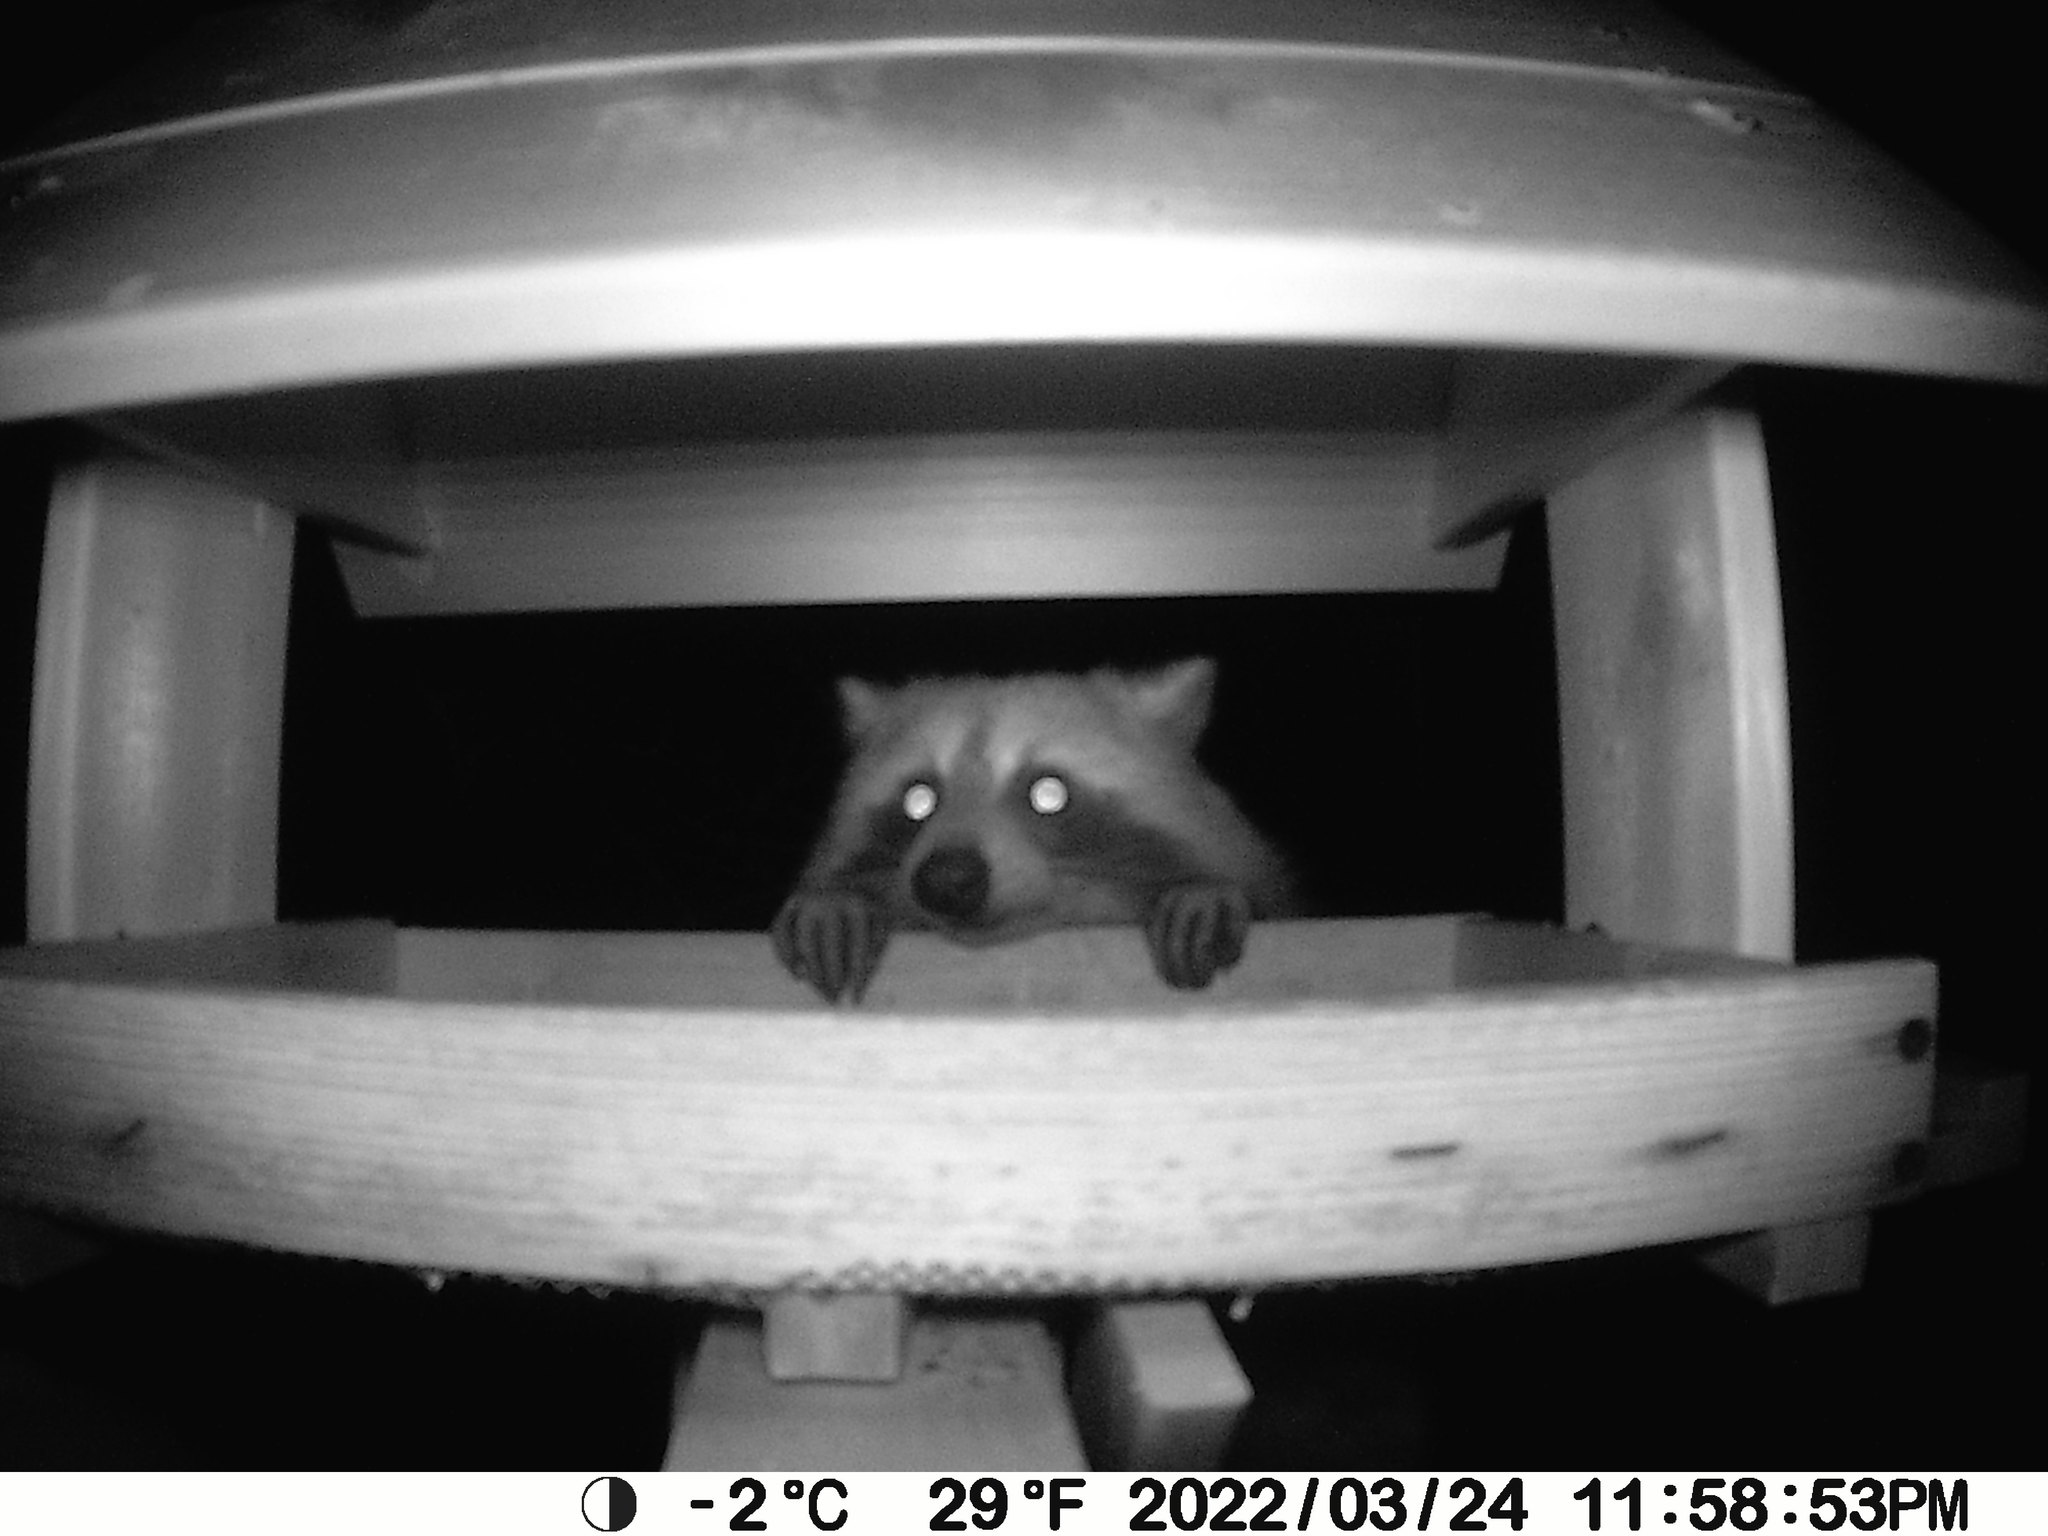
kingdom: Animalia
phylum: Chordata
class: Mammalia
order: Carnivora
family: Procyonidae
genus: Procyon
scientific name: Procyon lotor
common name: Raccoon
